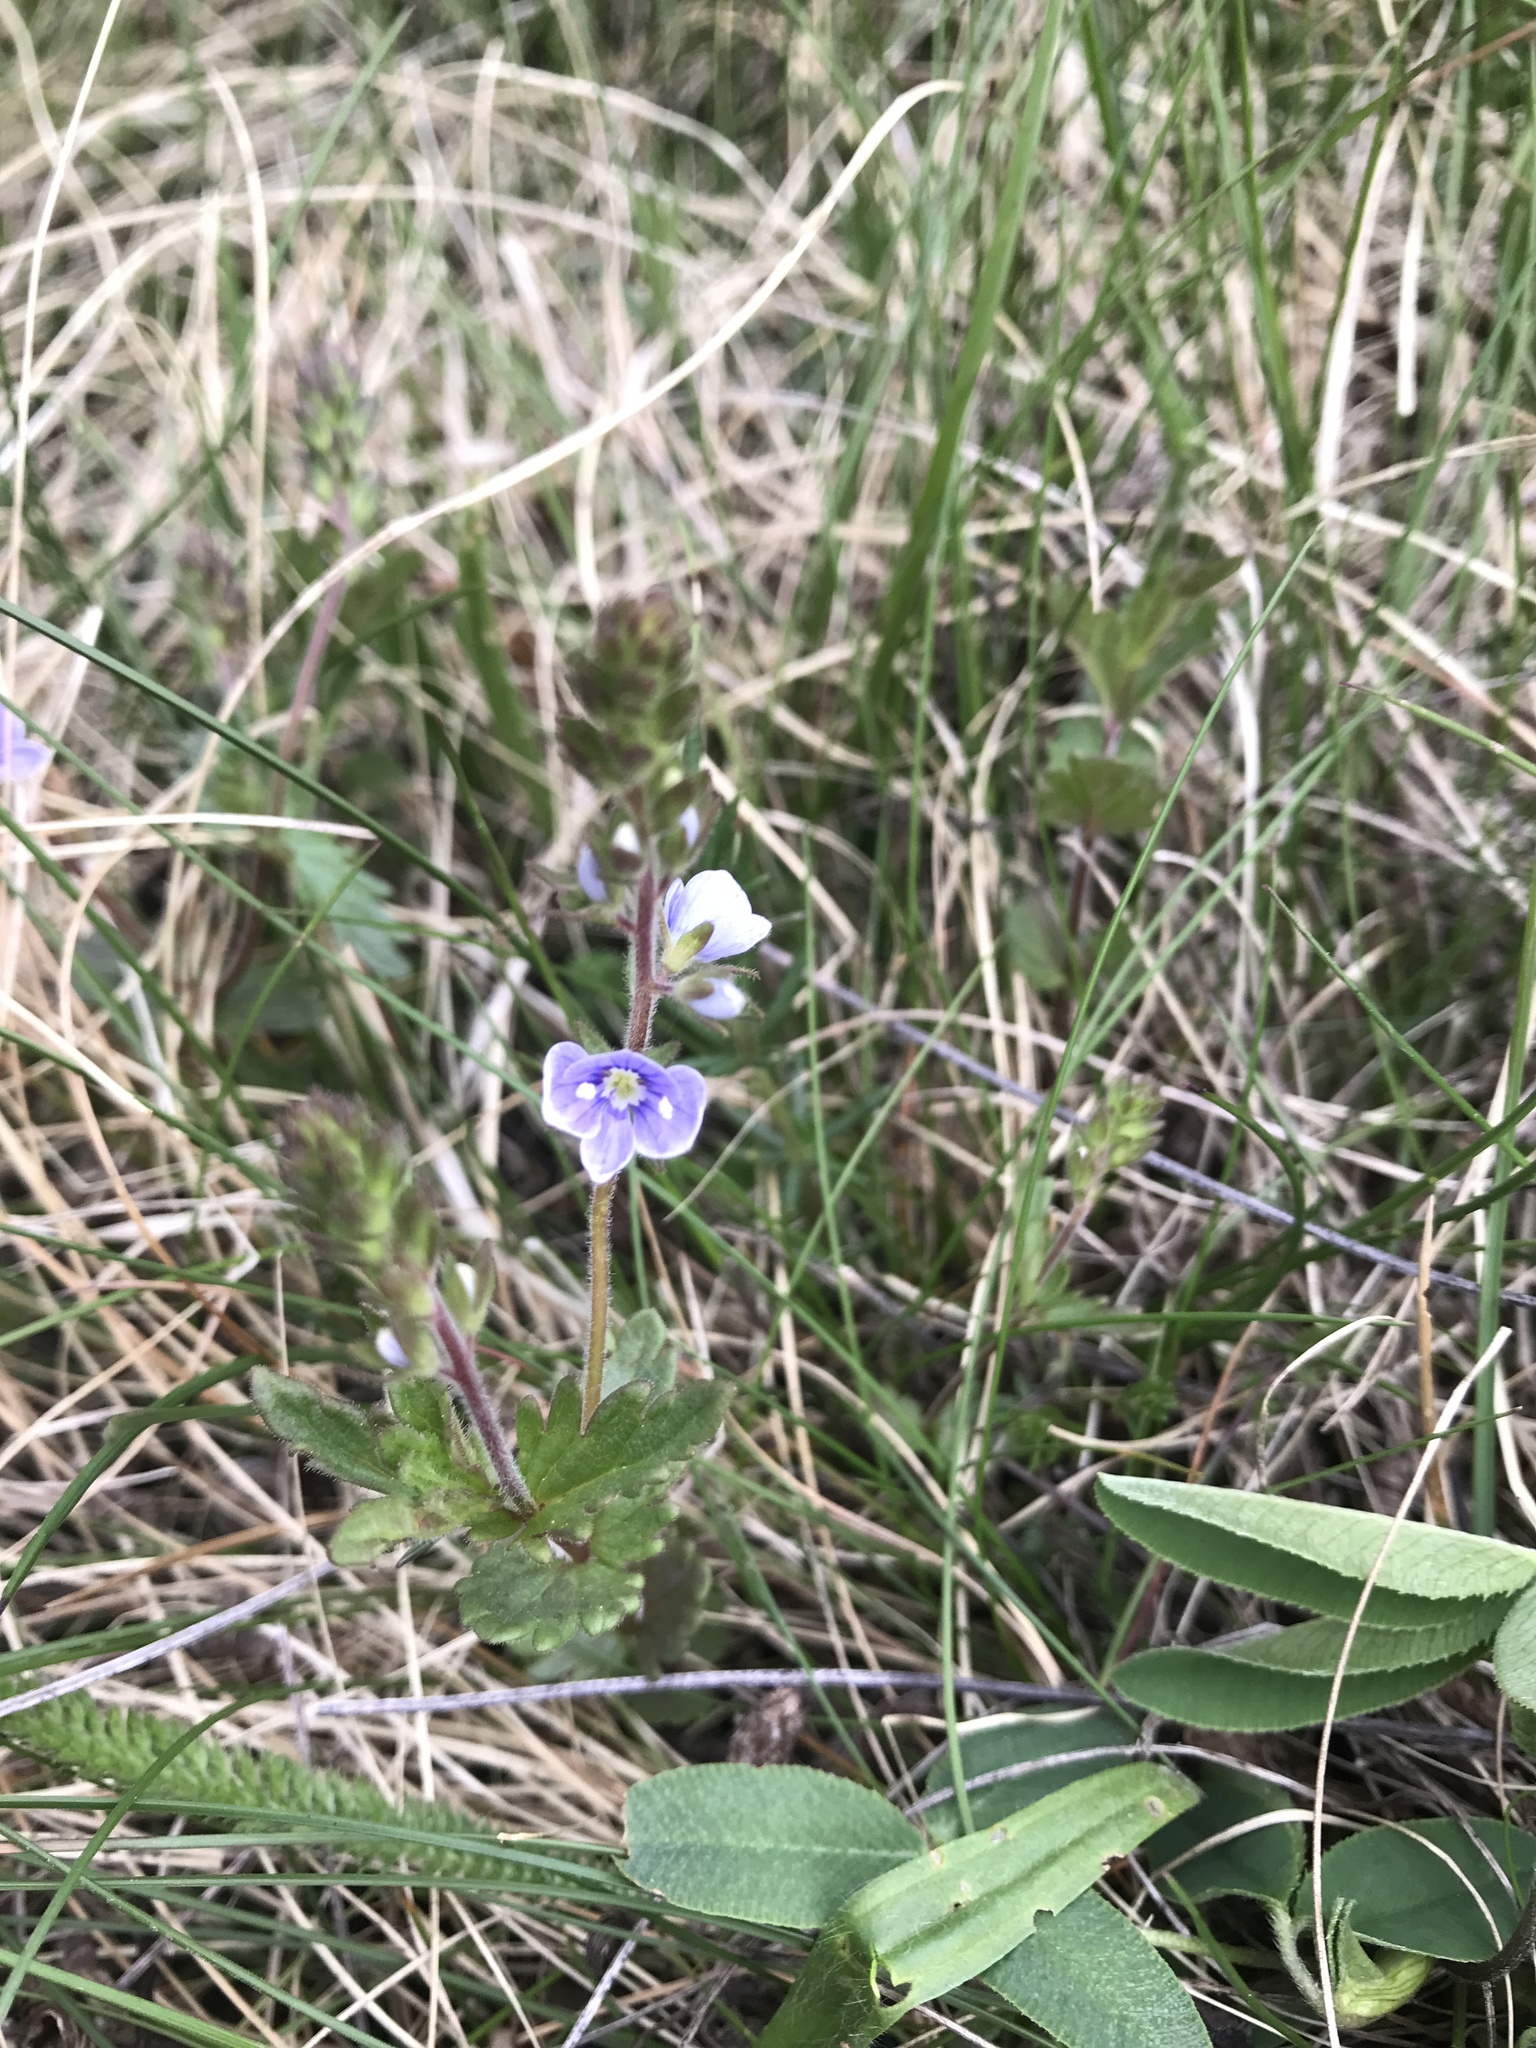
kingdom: Plantae
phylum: Tracheophyta
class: Magnoliopsida
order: Lamiales
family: Plantaginaceae
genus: Veronica
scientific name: Veronica chamaedrys
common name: Germander speedwell
